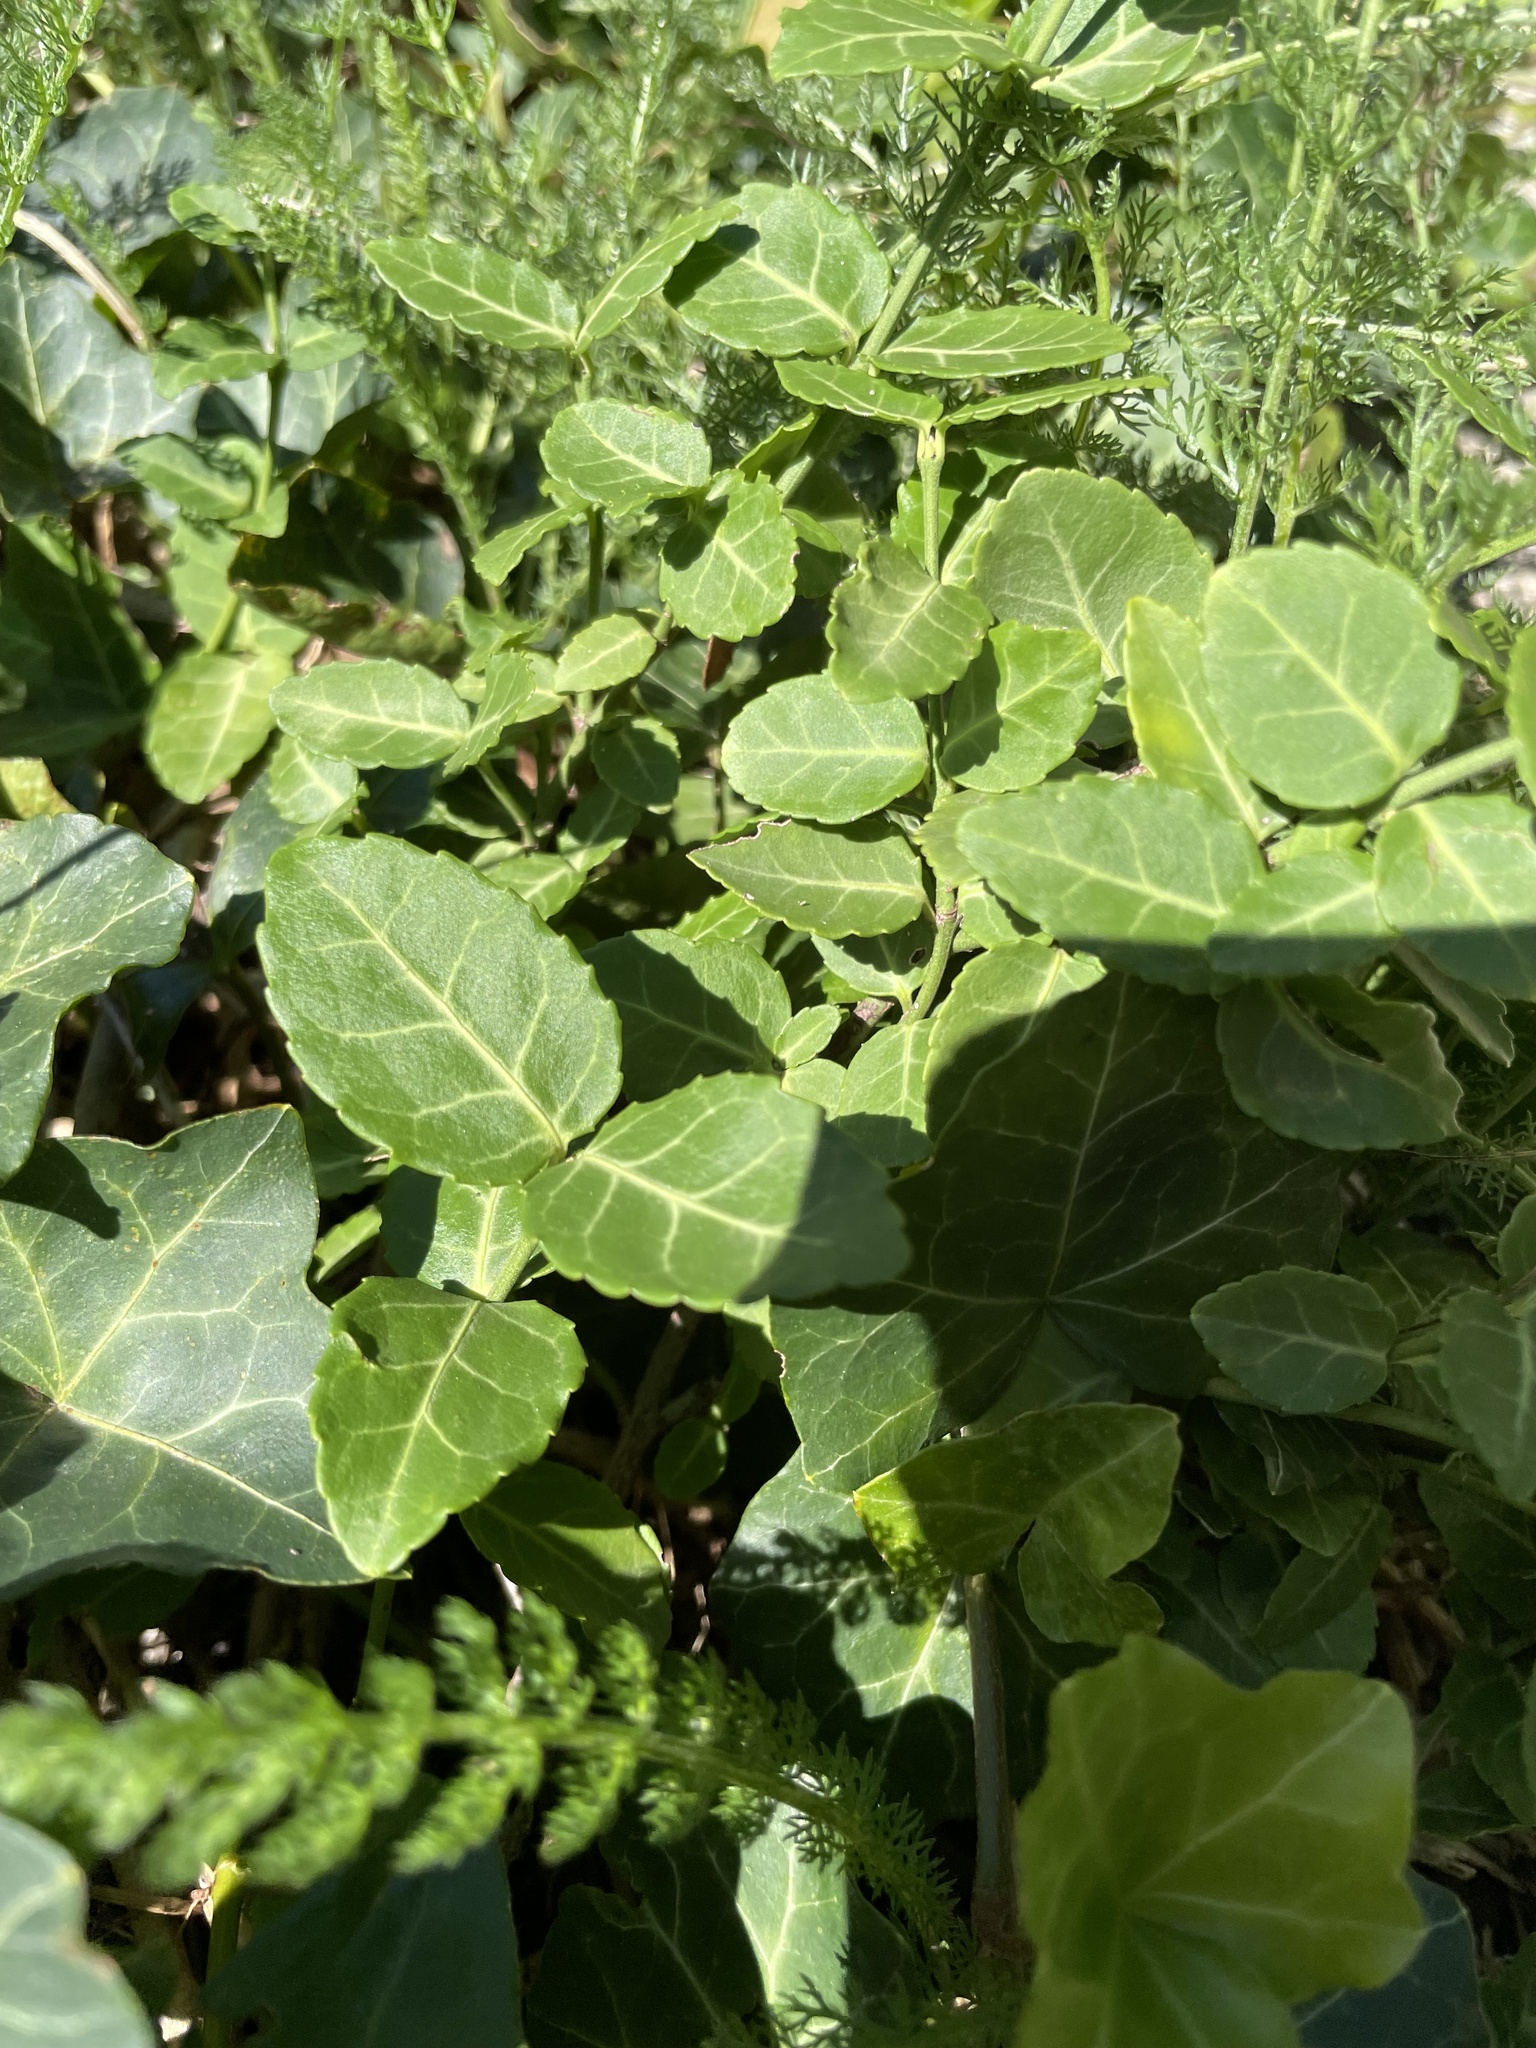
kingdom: Plantae
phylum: Tracheophyta
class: Magnoliopsida
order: Celastrales
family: Celastraceae
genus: Euonymus
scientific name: Euonymus fortunei
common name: Climbing euonymus
